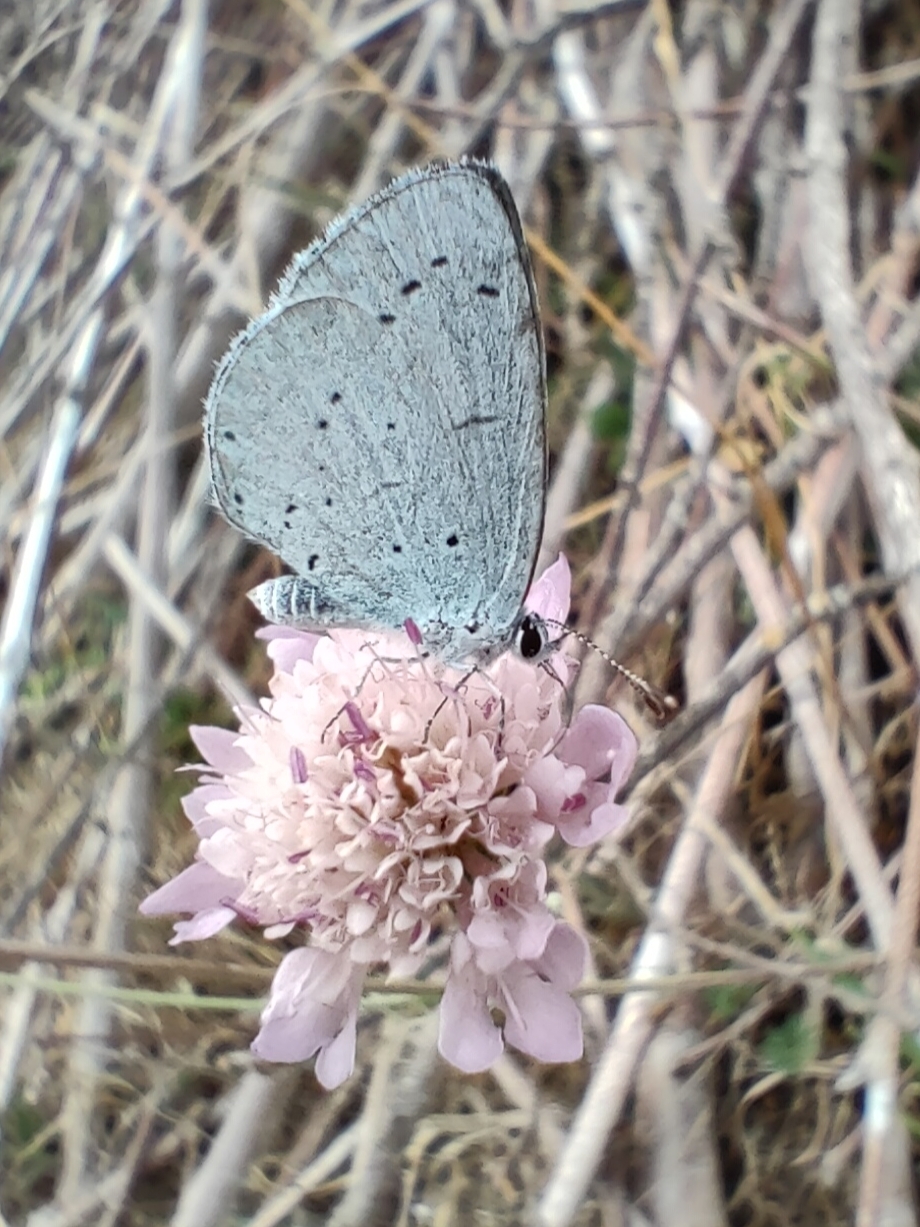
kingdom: Animalia
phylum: Arthropoda
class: Insecta
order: Lepidoptera
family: Lycaenidae
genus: Celastrina
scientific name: Celastrina argiolus
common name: Holly blue
